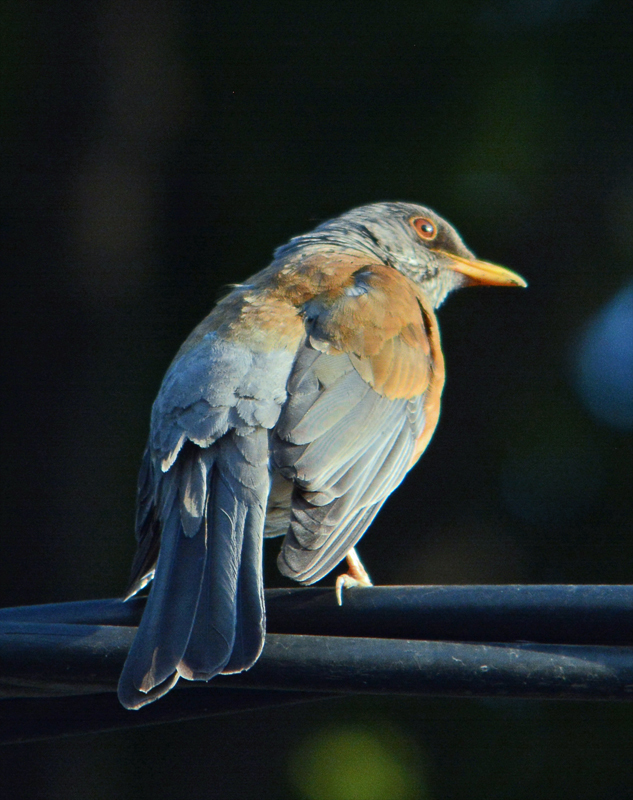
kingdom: Animalia
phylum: Chordata
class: Aves
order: Passeriformes
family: Turdidae
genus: Turdus
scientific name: Turdus rufopalliatus
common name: Rufous-backed robin
